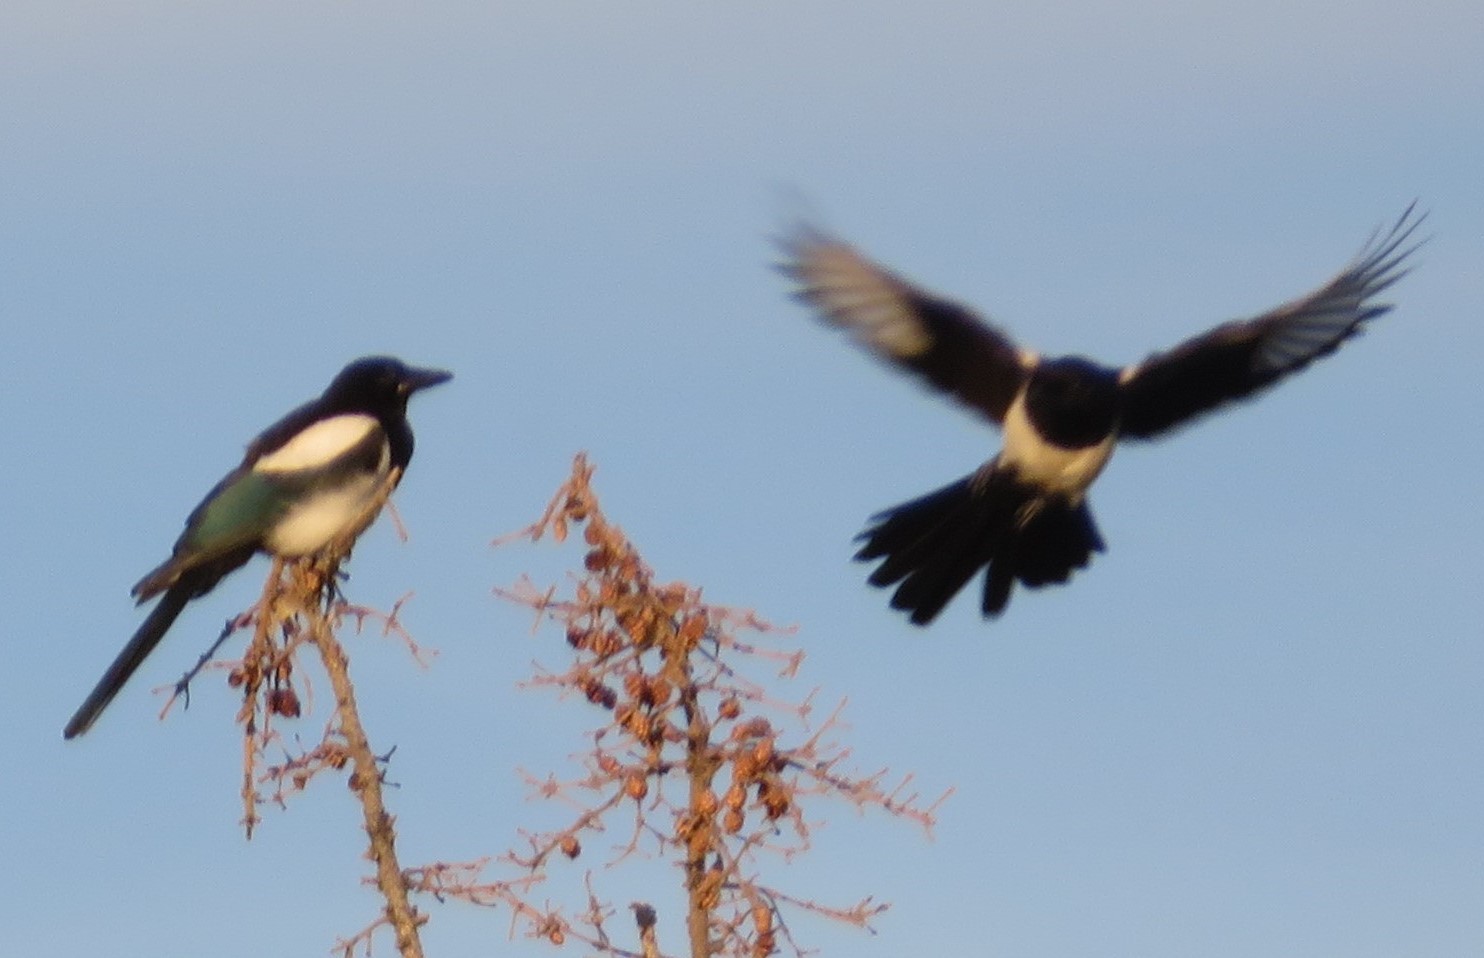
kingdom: Animalia
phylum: Chordata
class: Aves
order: Passeriformes
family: Corvidae
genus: Pica
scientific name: Pica hudsonia
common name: Black-billed magpie
